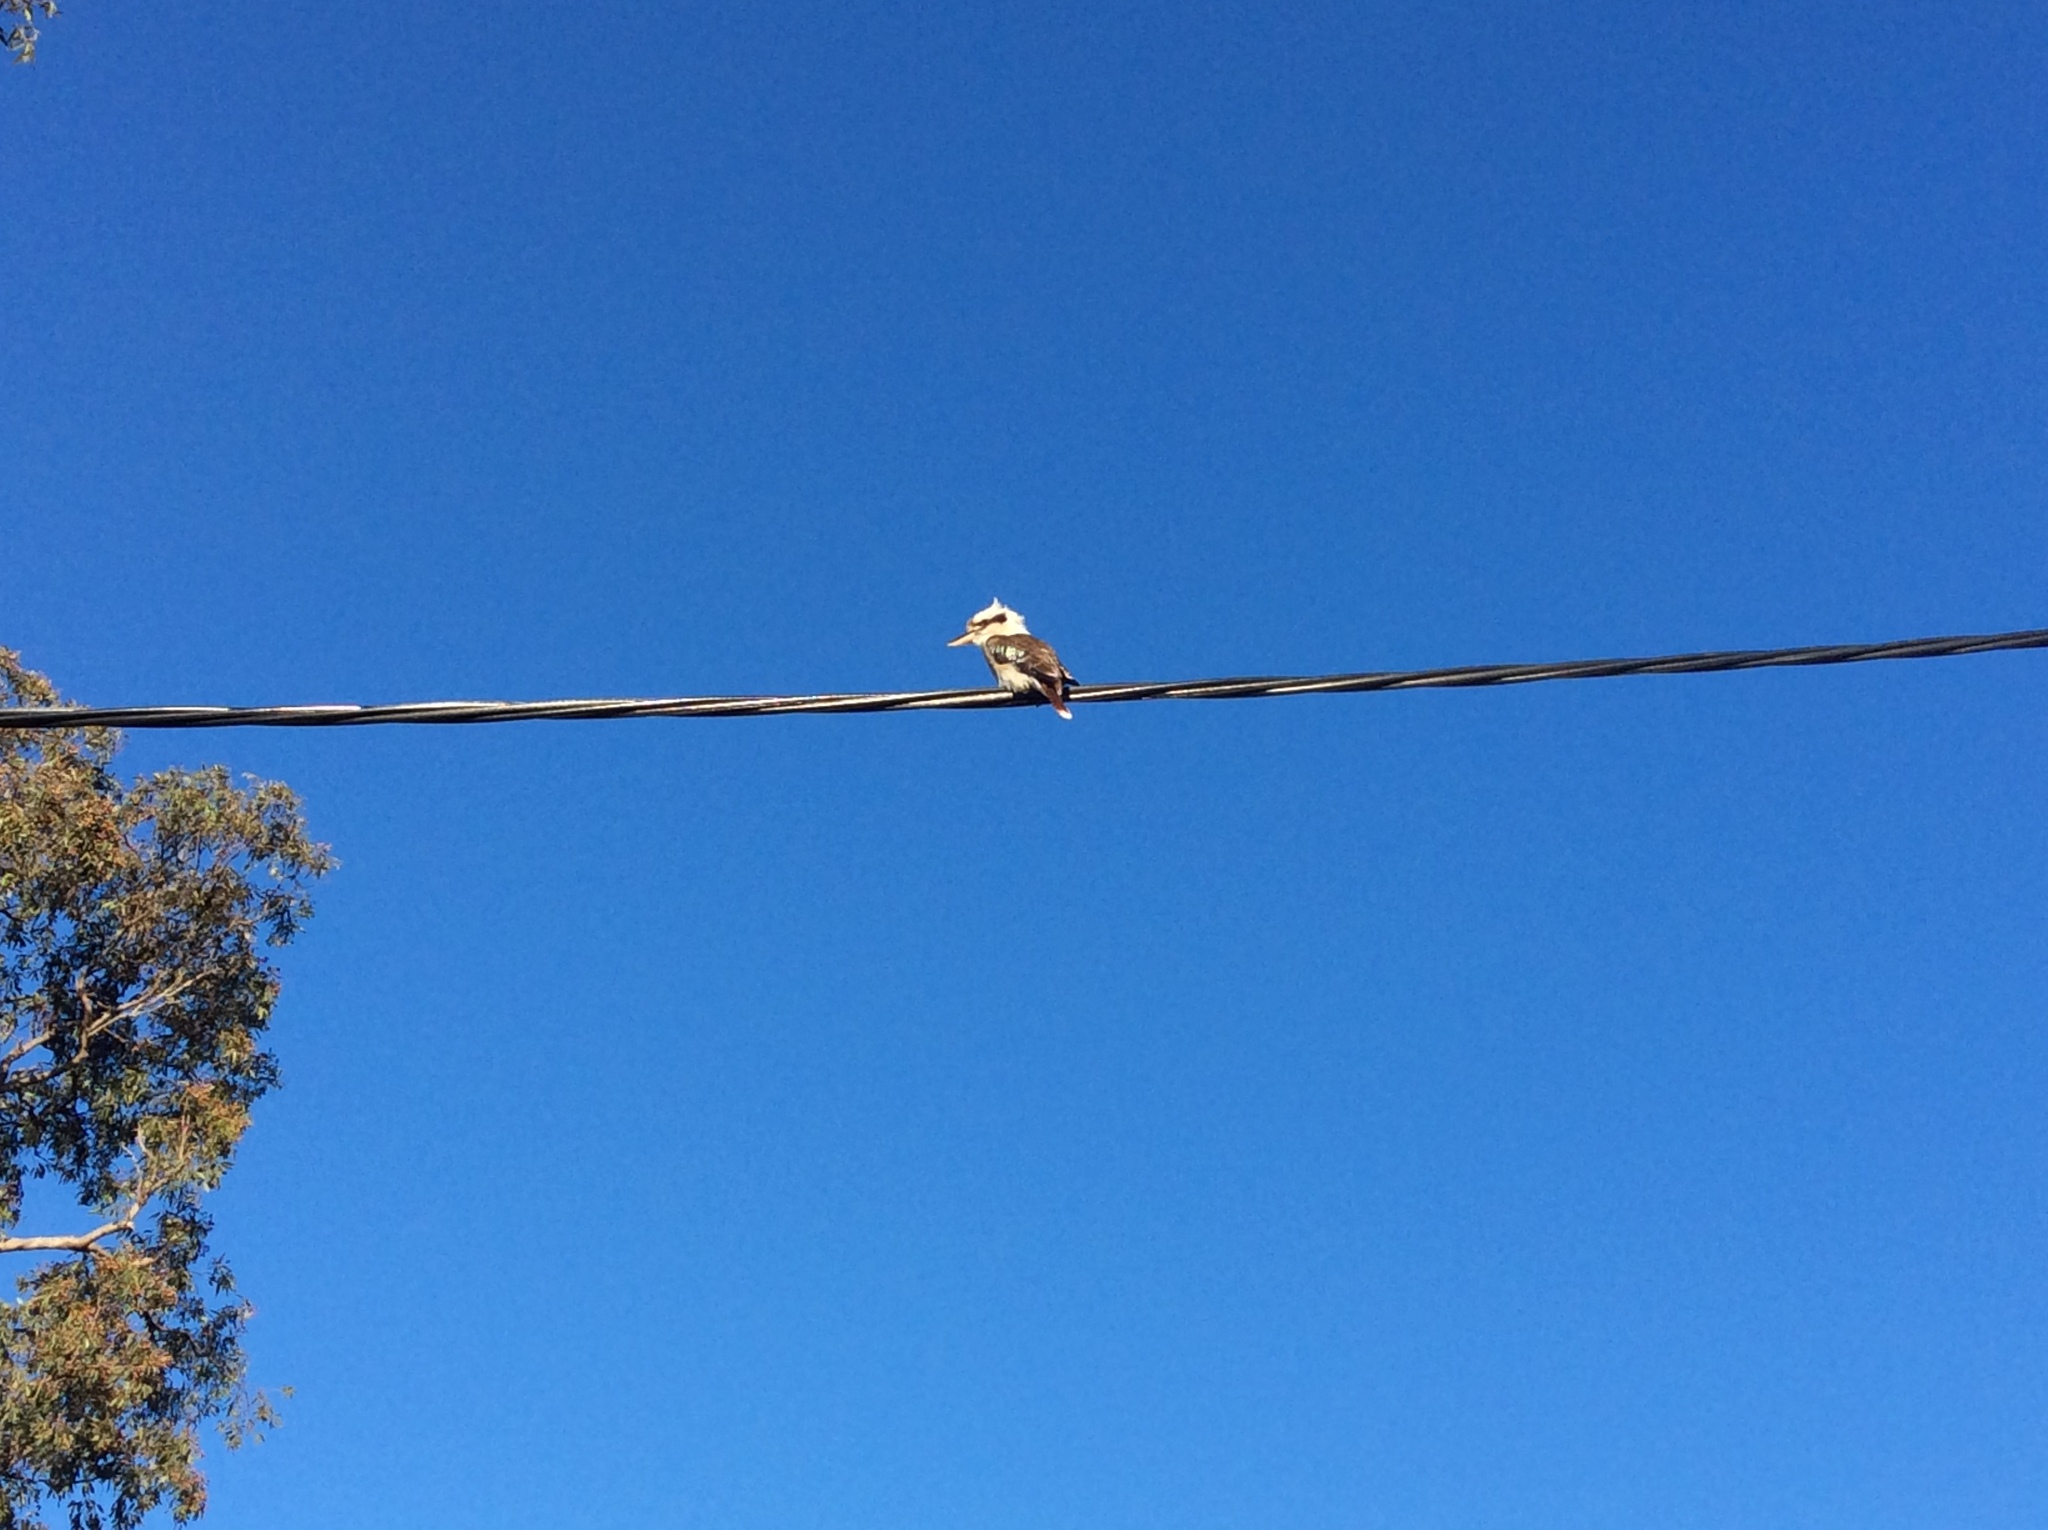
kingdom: Animalia
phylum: Chordata
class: Aves
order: Coraciiformes
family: Alcedinidae
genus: Dacelo
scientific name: Dacelo novaeguineae
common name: Laughing kookaburra
